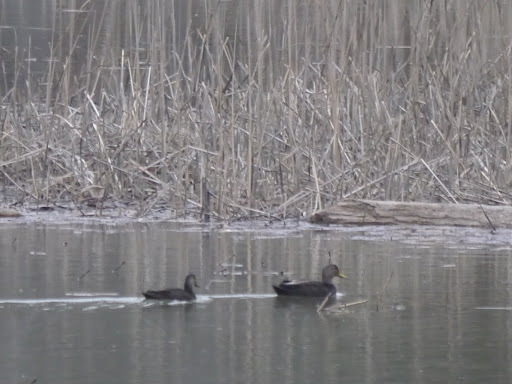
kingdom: Animalia
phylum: Chordata
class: Aves
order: Anseriformes
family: Anatidae
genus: Anas
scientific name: Anas rubripes
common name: American black duck
